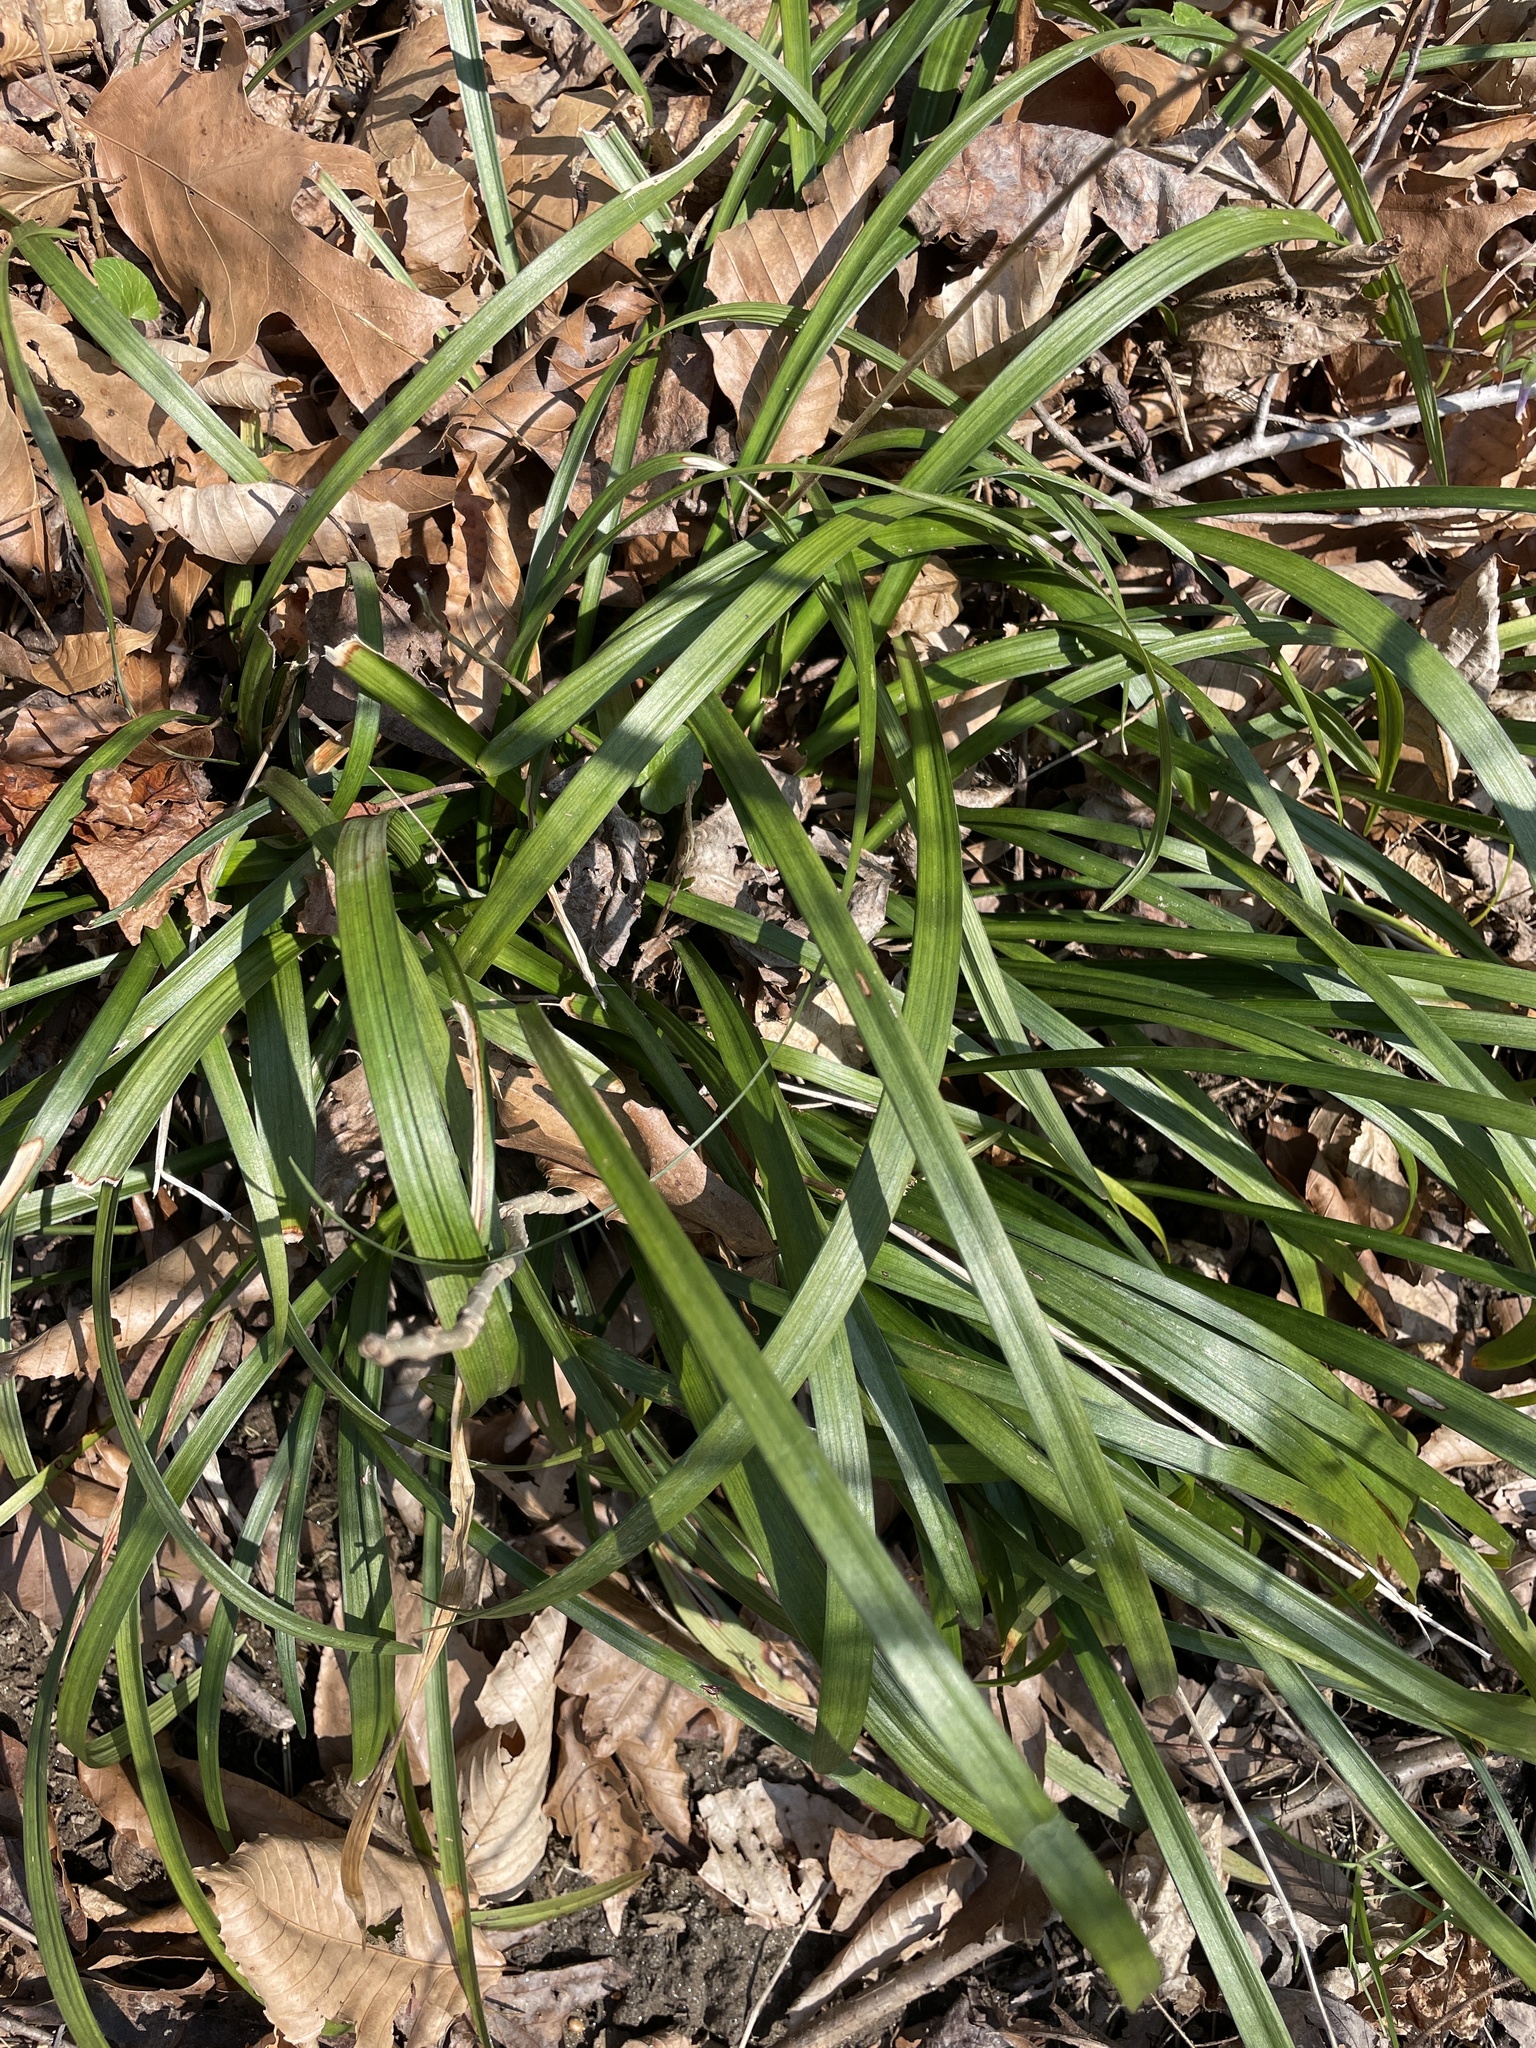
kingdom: Plantae
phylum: Tracheophyta
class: Liliopsida
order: Asparagales
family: Asparagaceae
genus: Liriope
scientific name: Liriope muscari
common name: Big blue lilyturf
